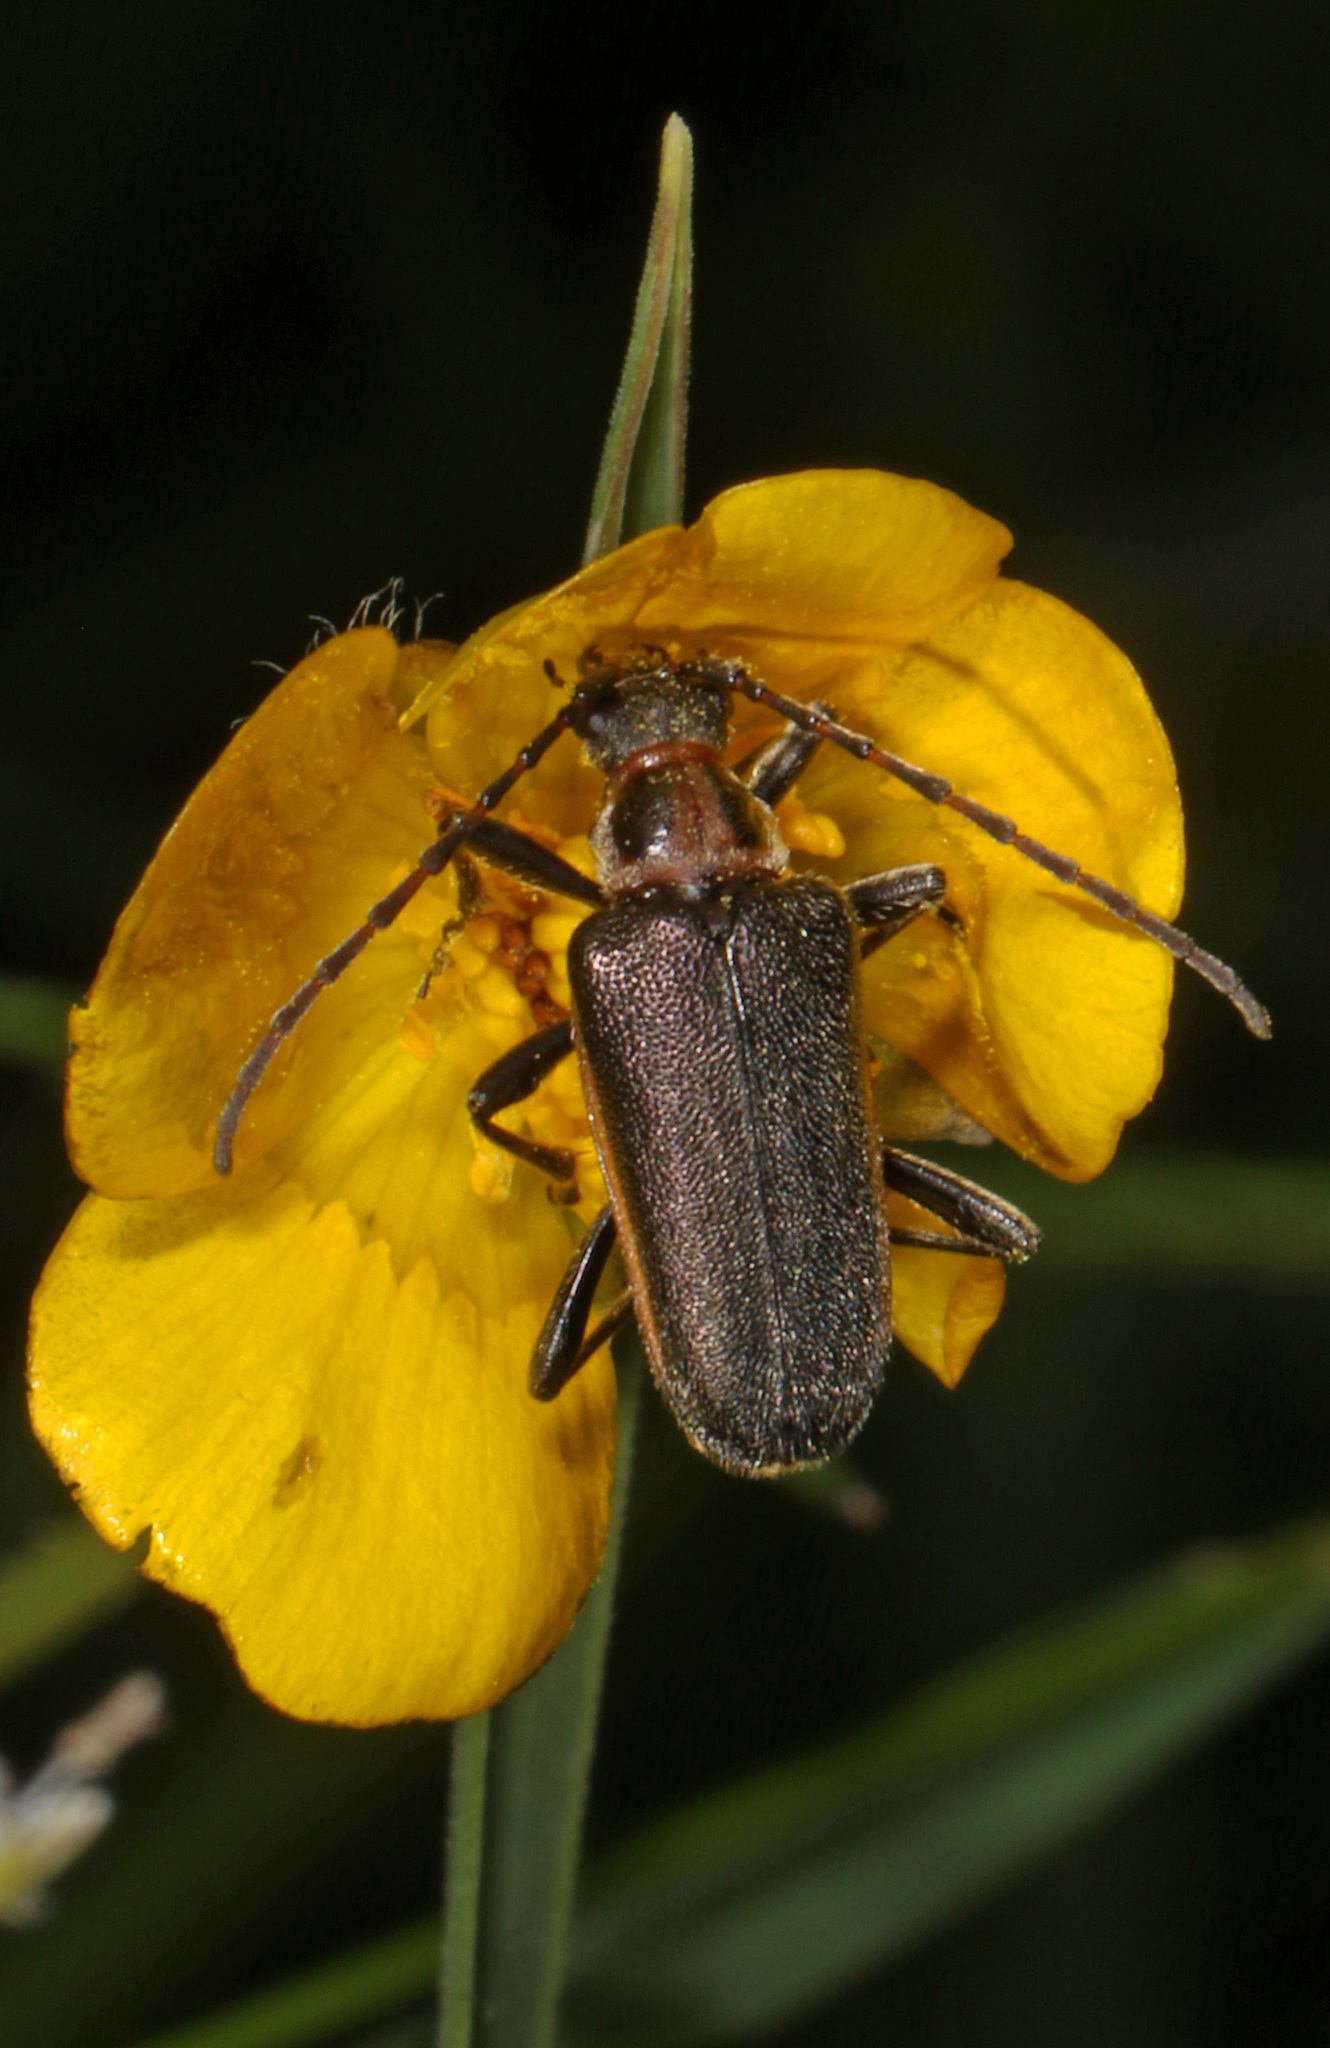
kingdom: Animalia
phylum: Arthropoda
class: Insecta
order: Coleoptera
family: Cerambycidae
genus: Gaurotes
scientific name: Gaurotes thoracica
